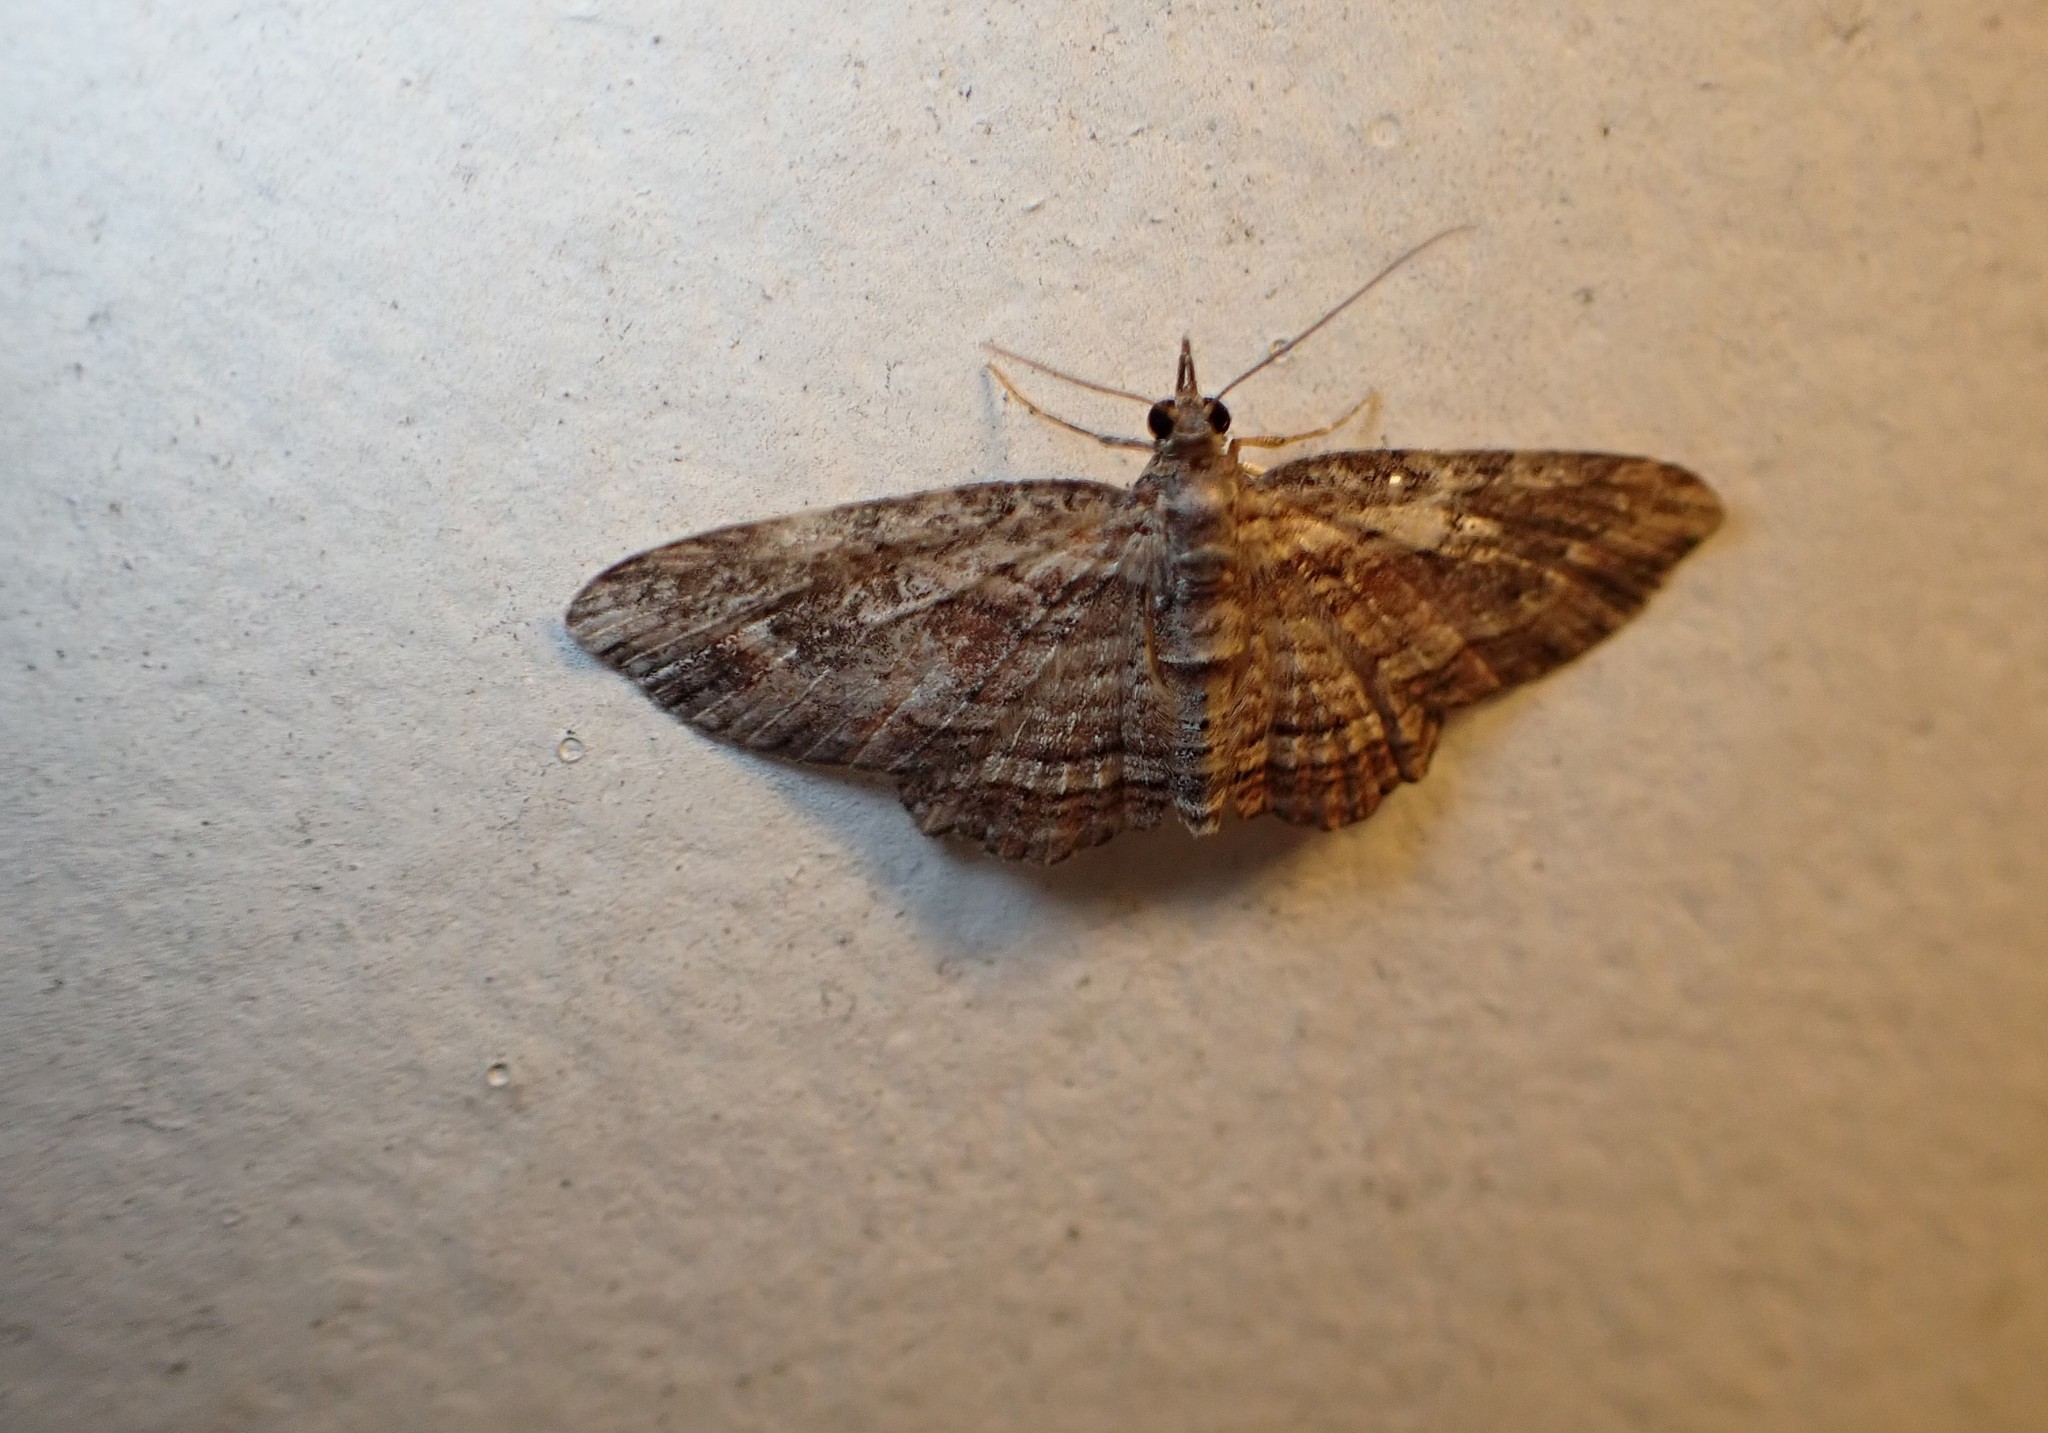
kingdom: Animalia
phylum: Arthropoda
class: Insecta
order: Lepidoptera
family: Geometridae
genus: Chloroclystis
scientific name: Chloroclystis filata
